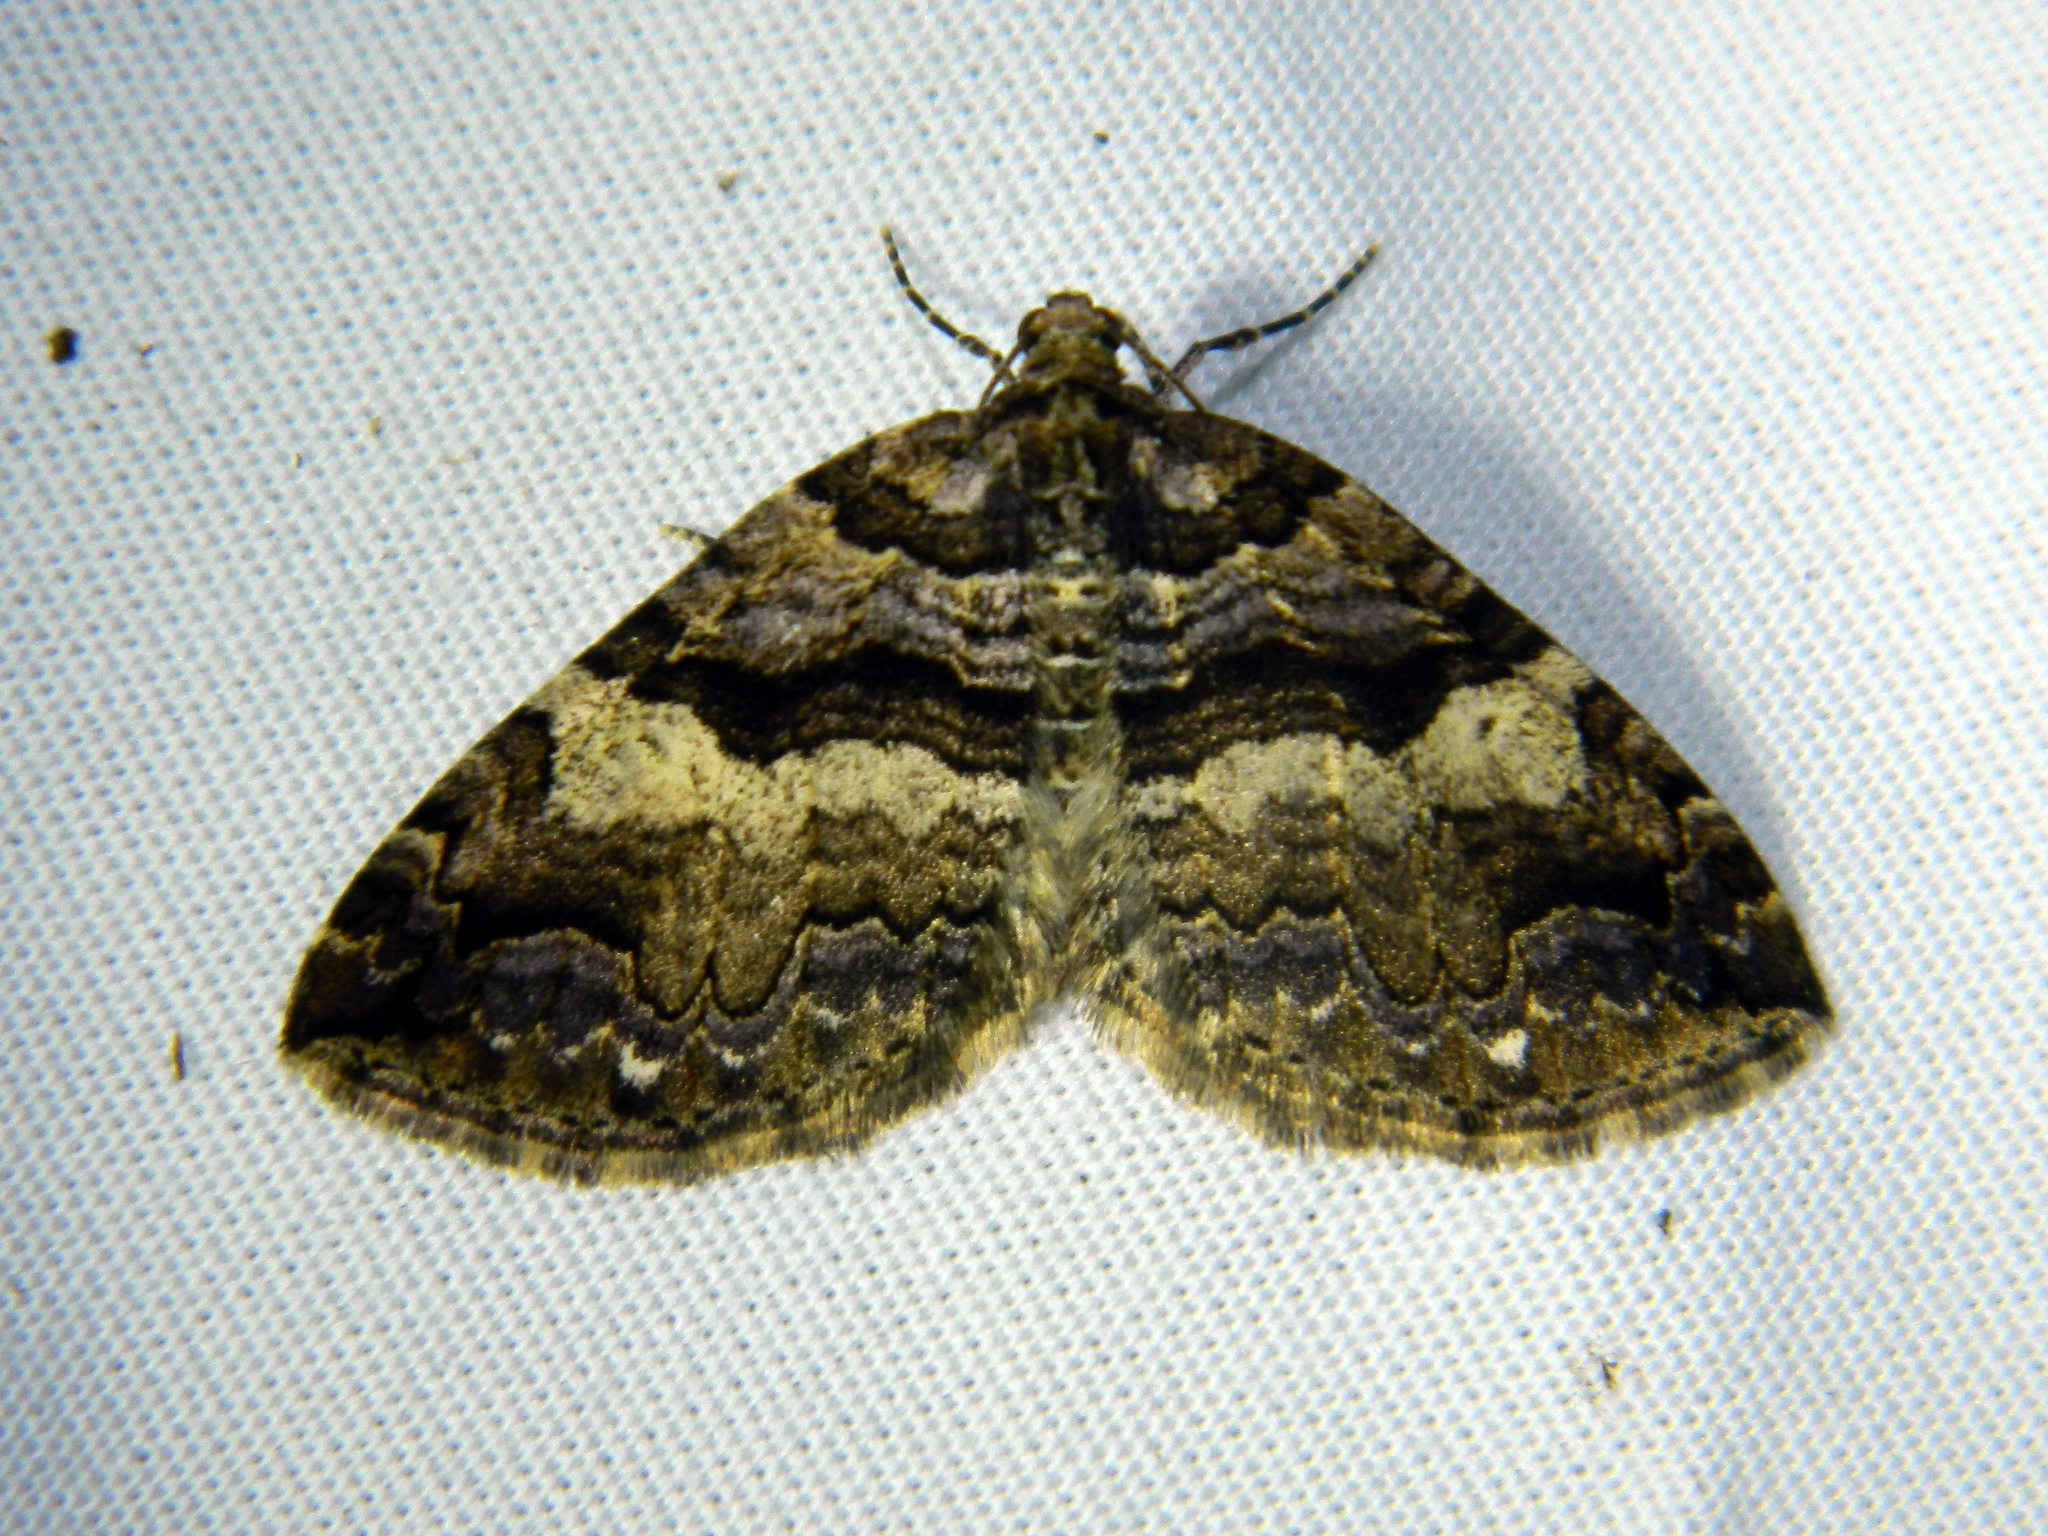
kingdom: Animalia
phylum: Arthropoda
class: Insecta
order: Lepidoptera
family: Geometridae
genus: Anticlea
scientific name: Anticlea vasiliata
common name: Variable carpet
